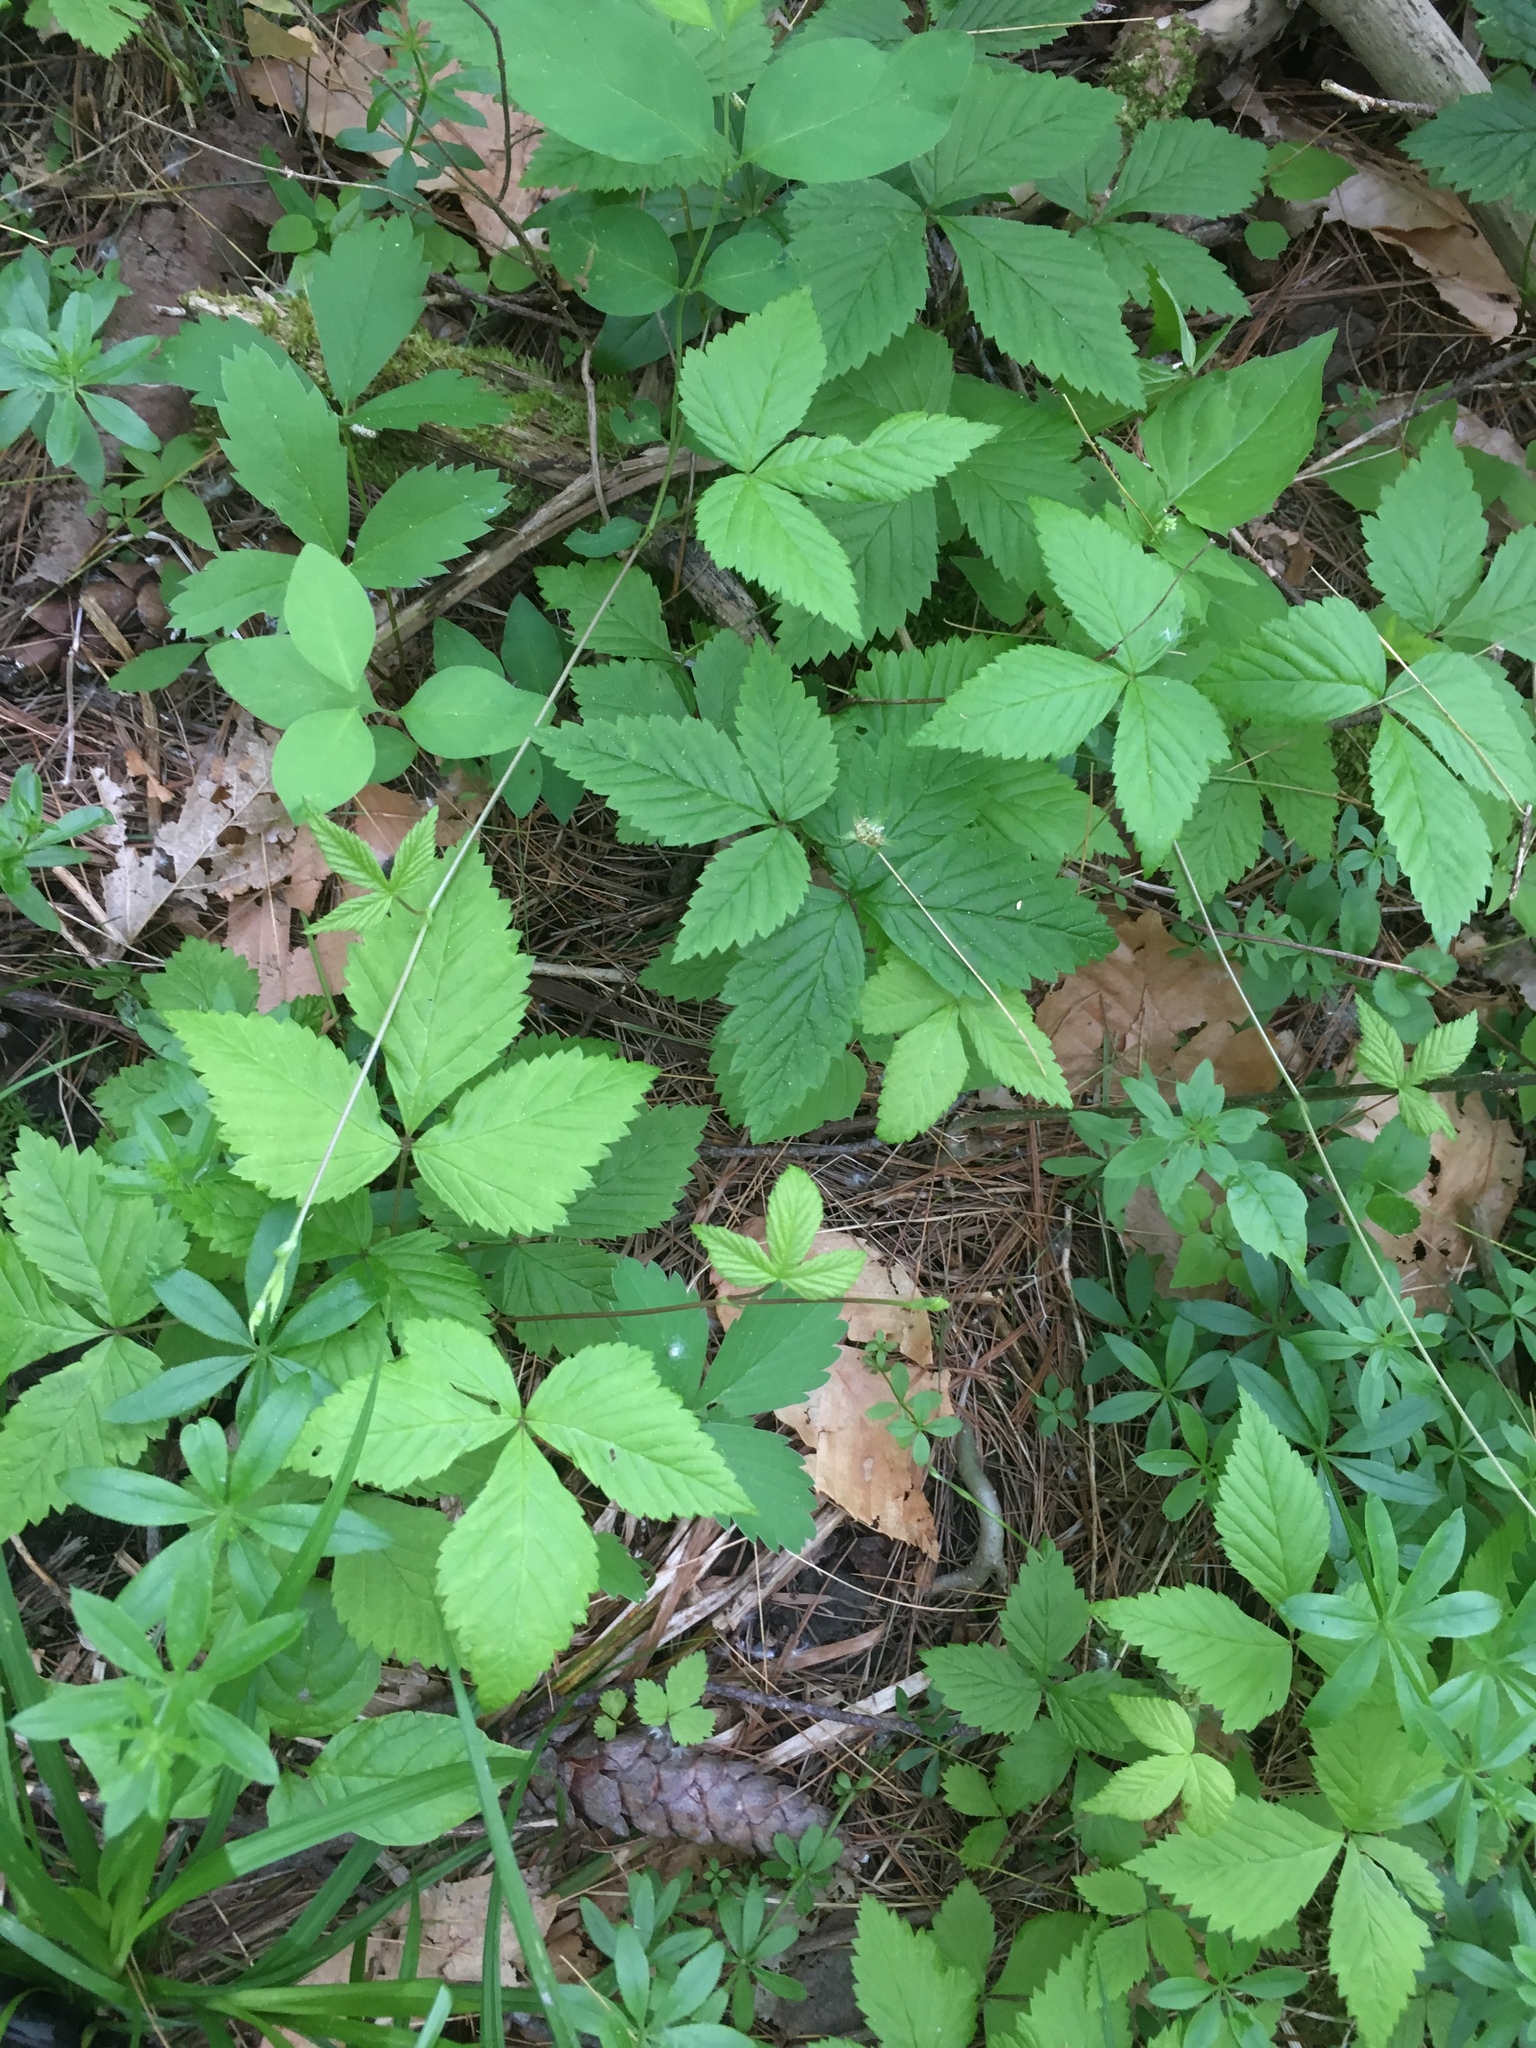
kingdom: Plantae
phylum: Tracheophyta
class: Magnoliopsida
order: Rosales
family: Rosaceae
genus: Rubus
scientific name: Rubus pubescens
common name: Dwarf raspberry
